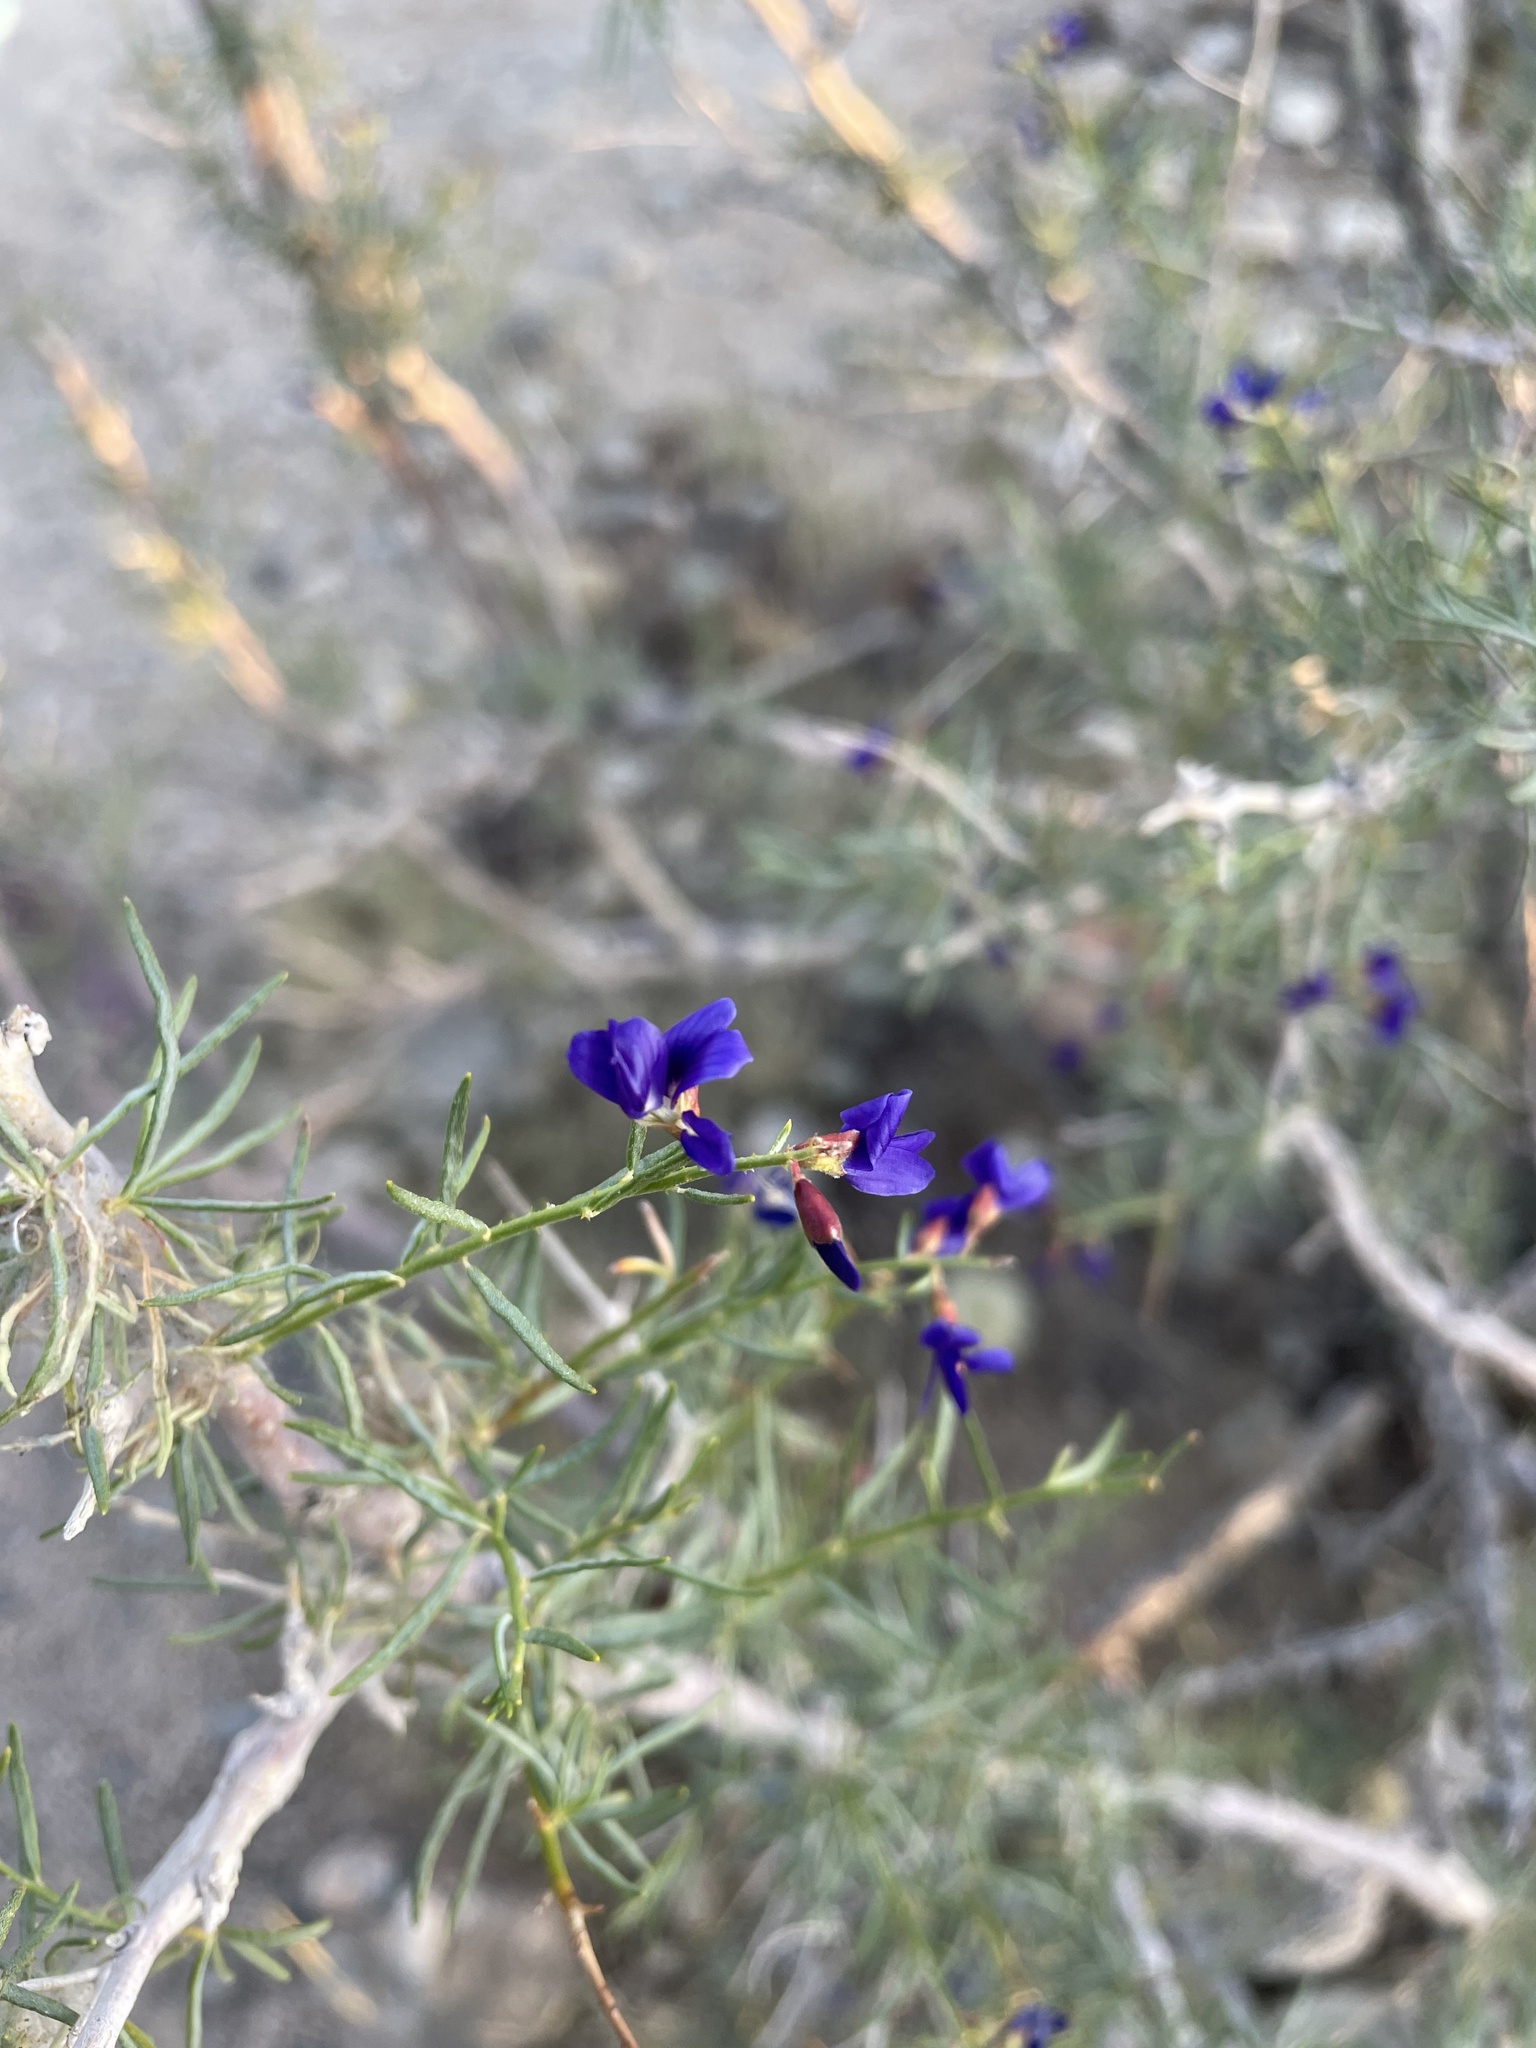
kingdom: Plantae
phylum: Tracheophyta
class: Magnoliopsida
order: Fabales
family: Fabaceae
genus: Psorothamnus
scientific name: Psorothamnus schottii
